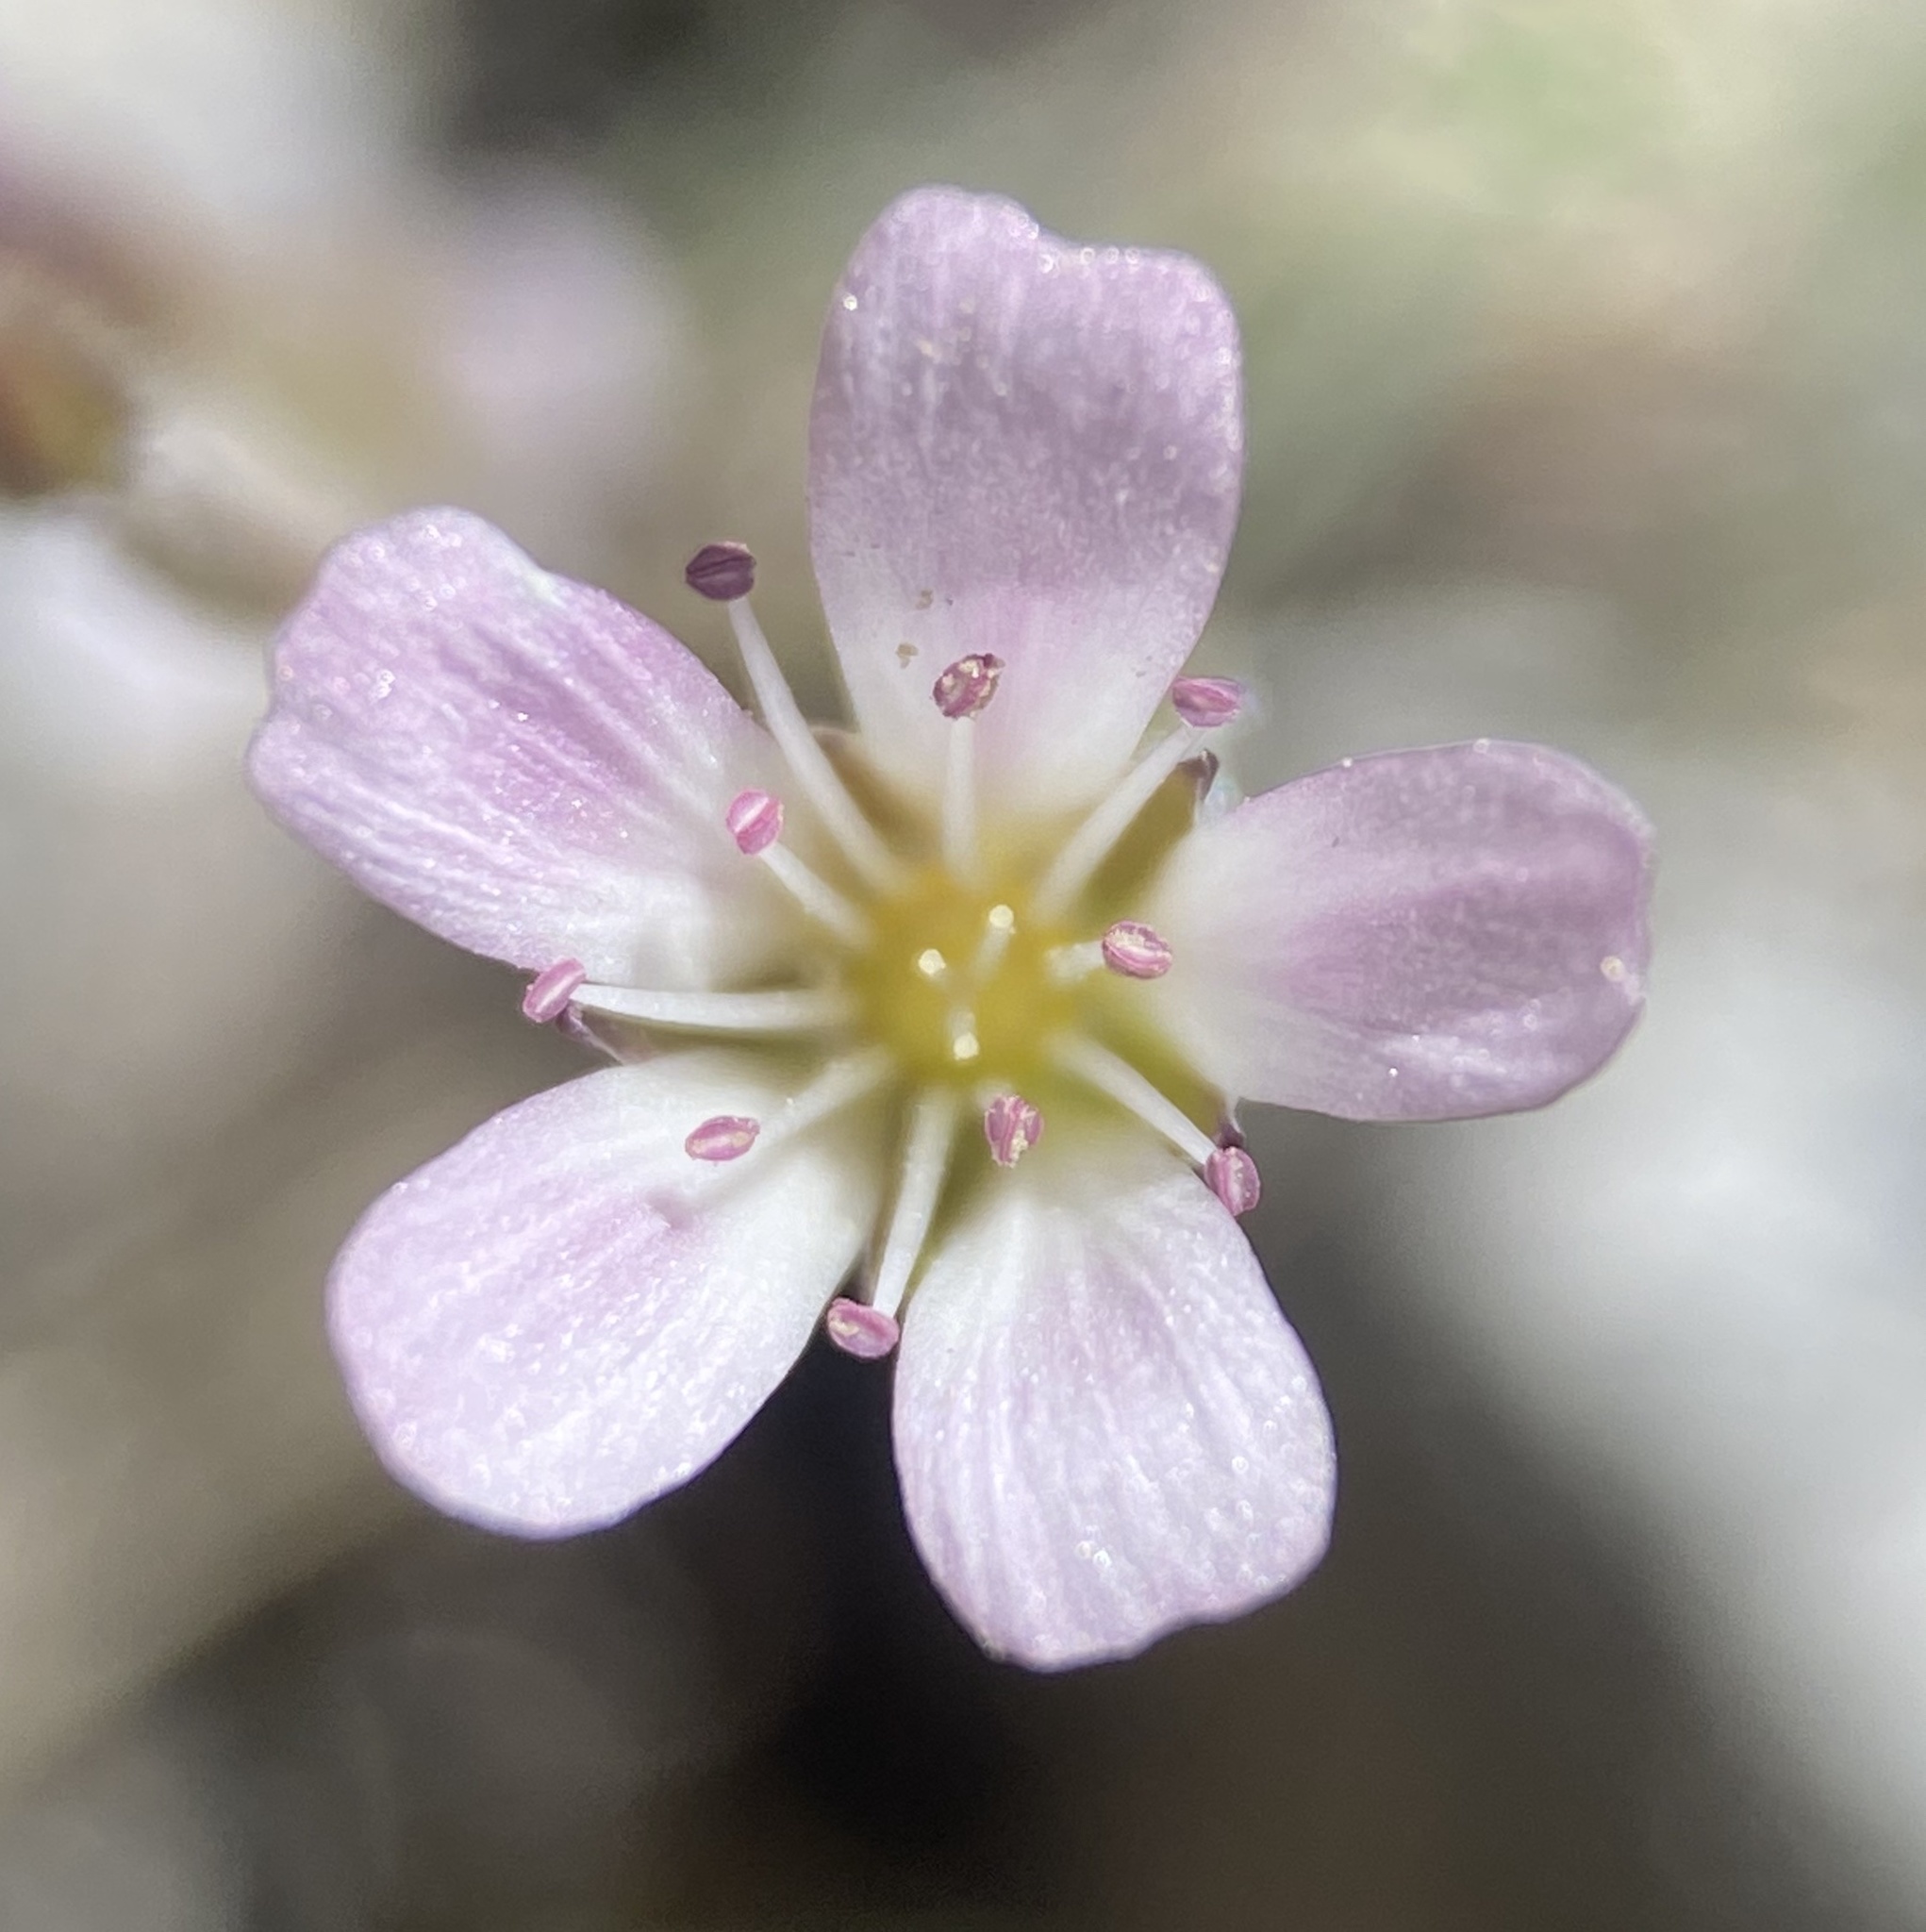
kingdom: Plantae
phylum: Tracheophyta
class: Magnoliopsida
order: Caryophyllales
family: Caryophyllaceae
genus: Eremogone
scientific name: Eremogone kingii
